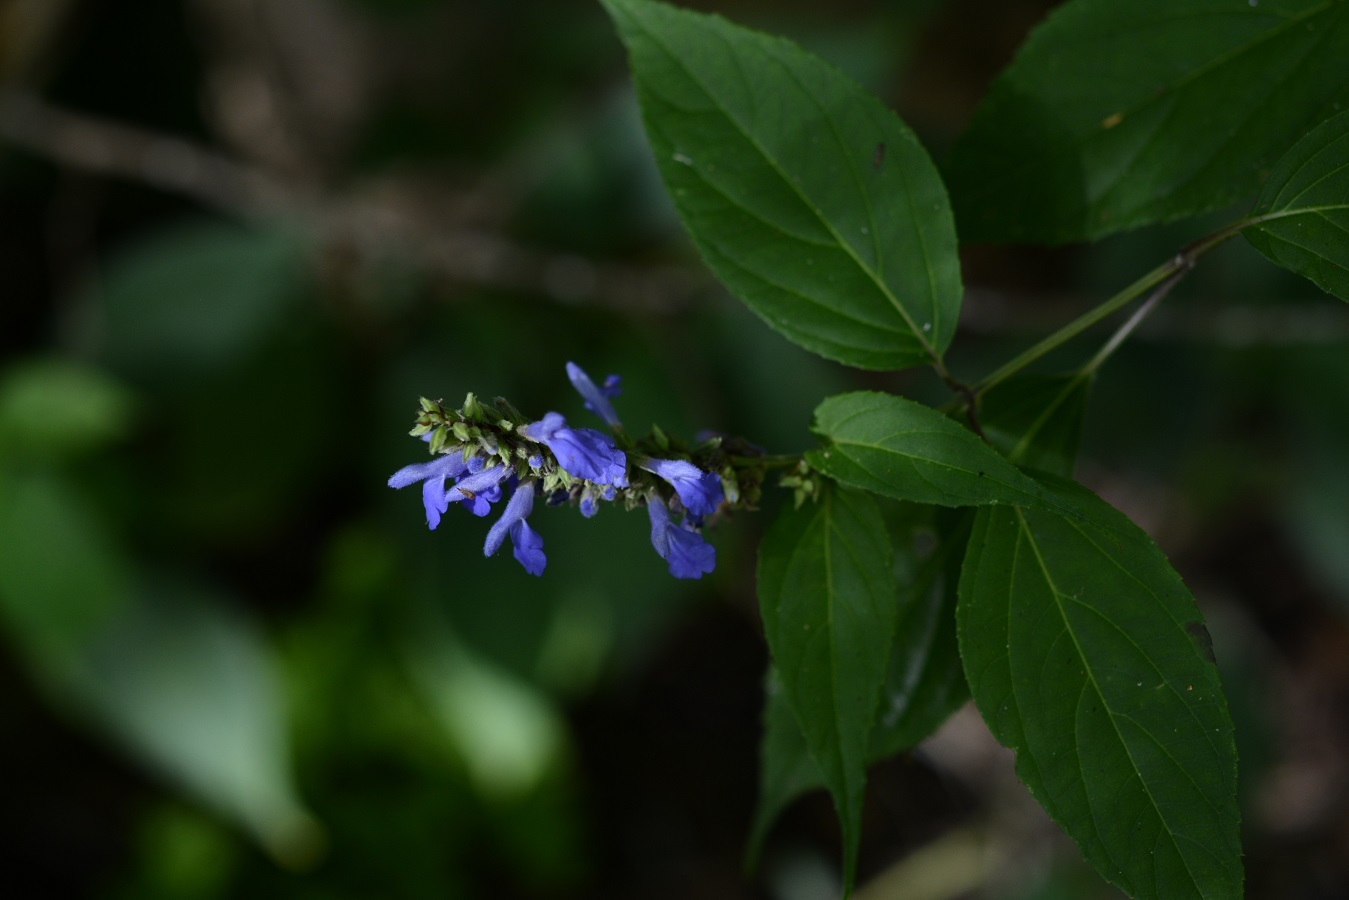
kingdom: Plantae
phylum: Tracheophyta
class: Magnoliopsida
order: Lamiales
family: Lamiaceae
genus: Salvia
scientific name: Salvia connivens
